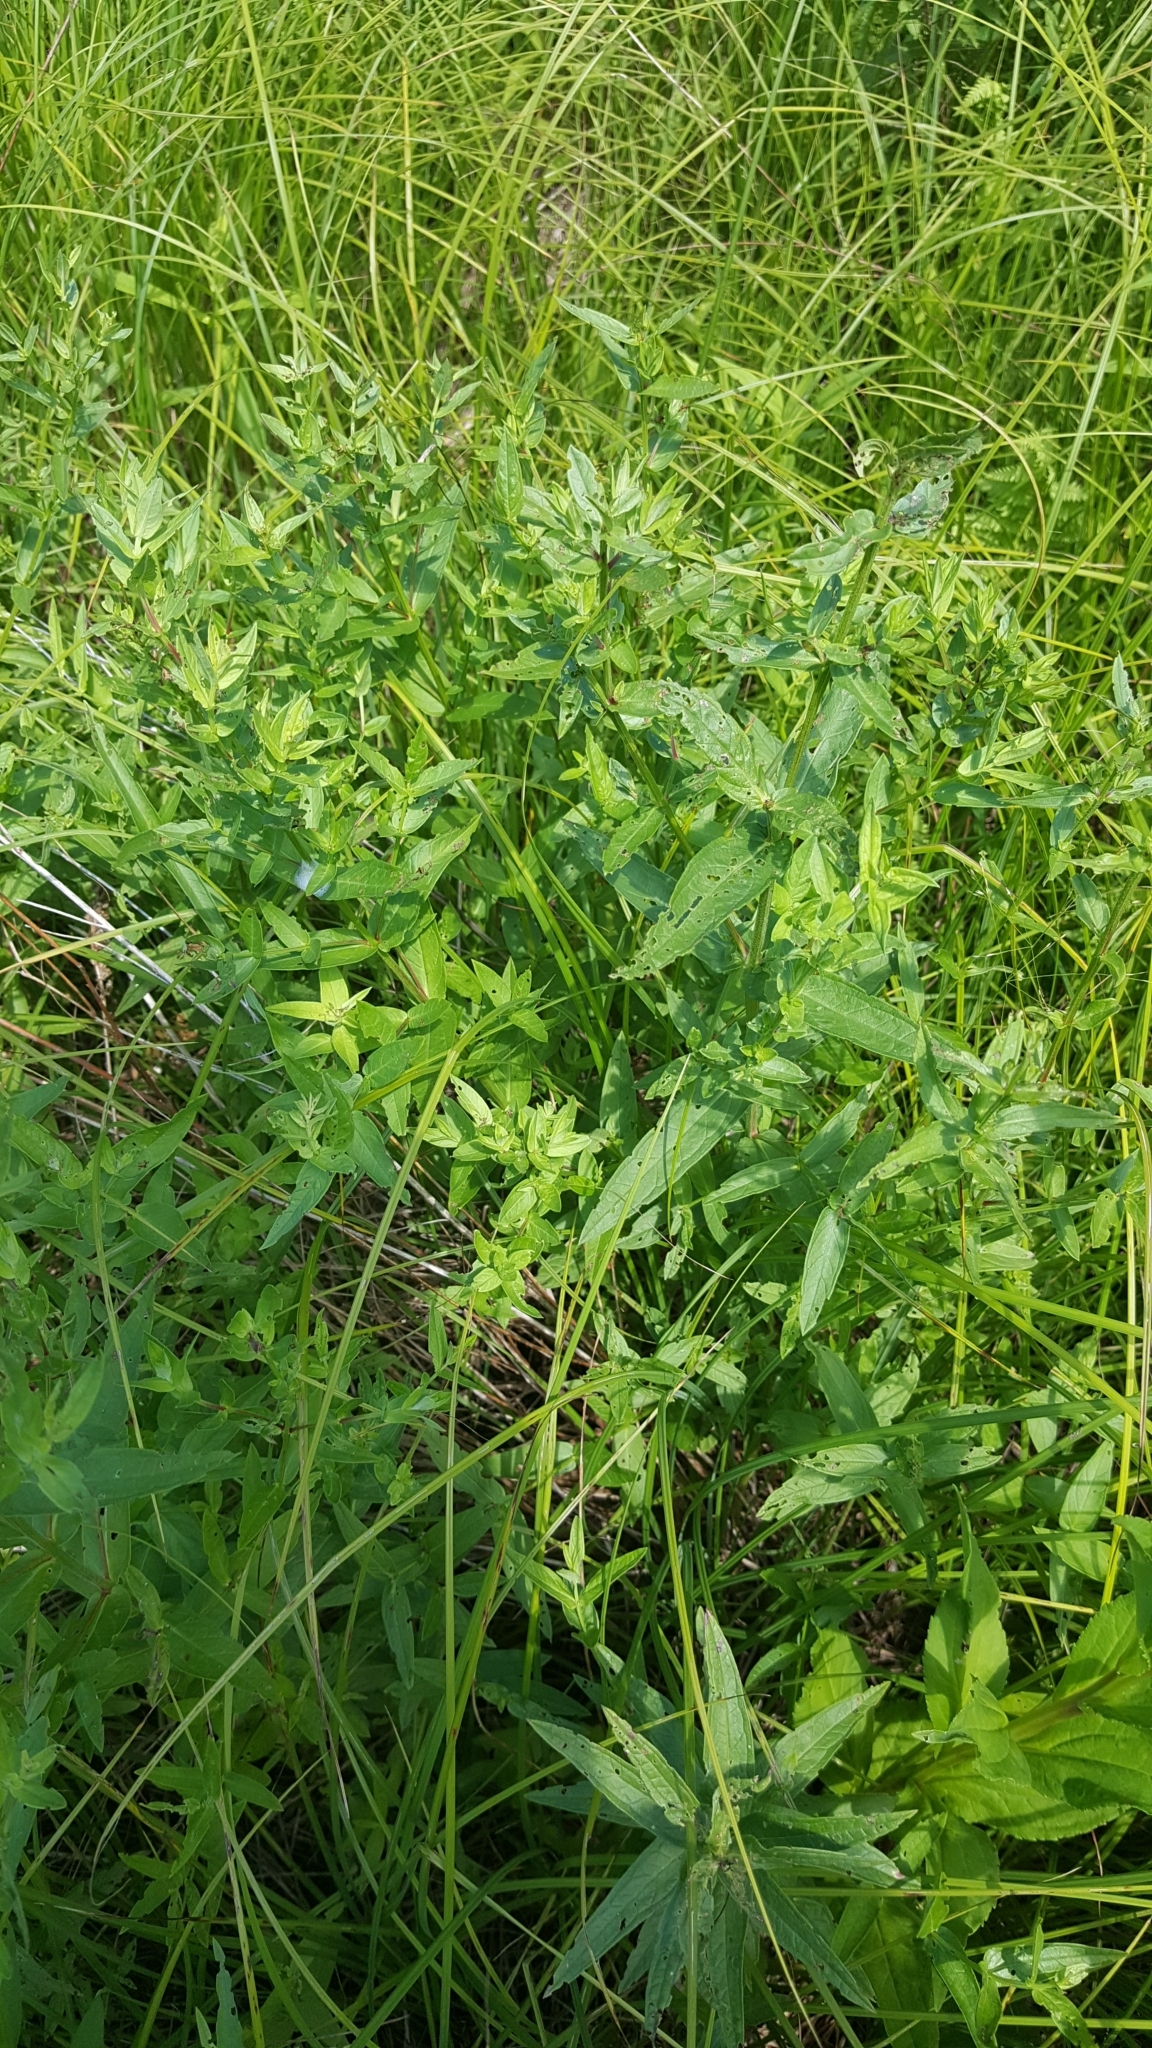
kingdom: Plantae
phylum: Tracheophyta
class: Magnoliopsida
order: Myrtales
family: Lythraceae
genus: Lythrum
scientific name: Lythrum salicaria
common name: Purple loosestrife
